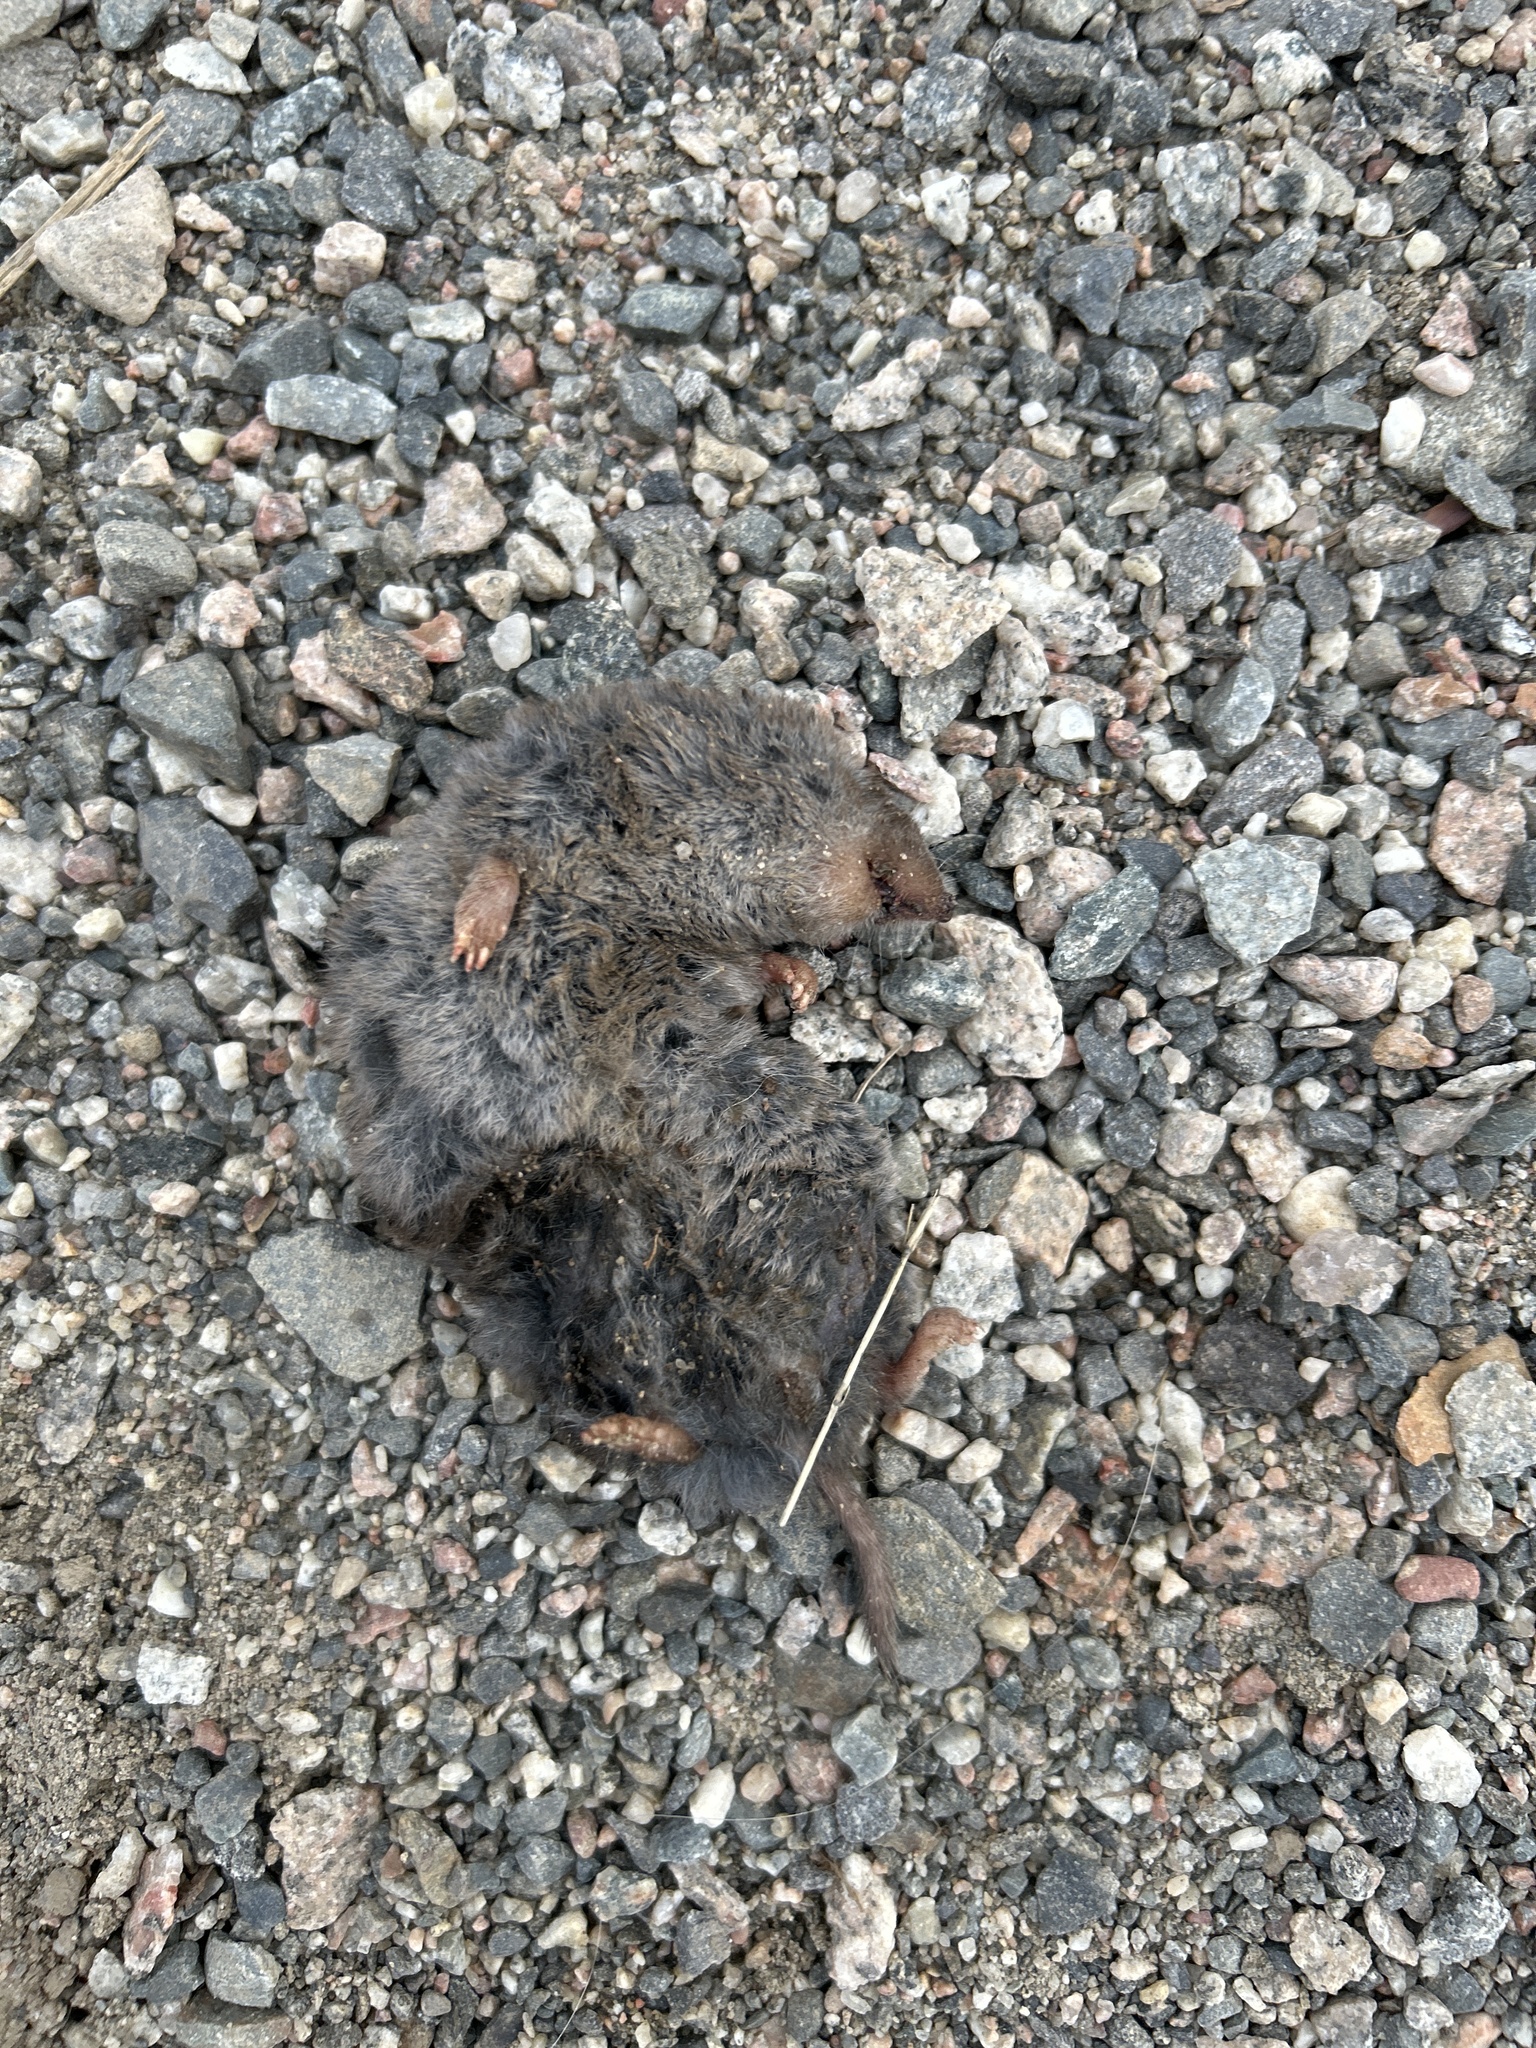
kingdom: Animalia
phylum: Chordata
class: Mammalia
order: Soricomorpha
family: Soricidae
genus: Blarina
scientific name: Blarina brevicauda
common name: Northern short-tailed shrew
